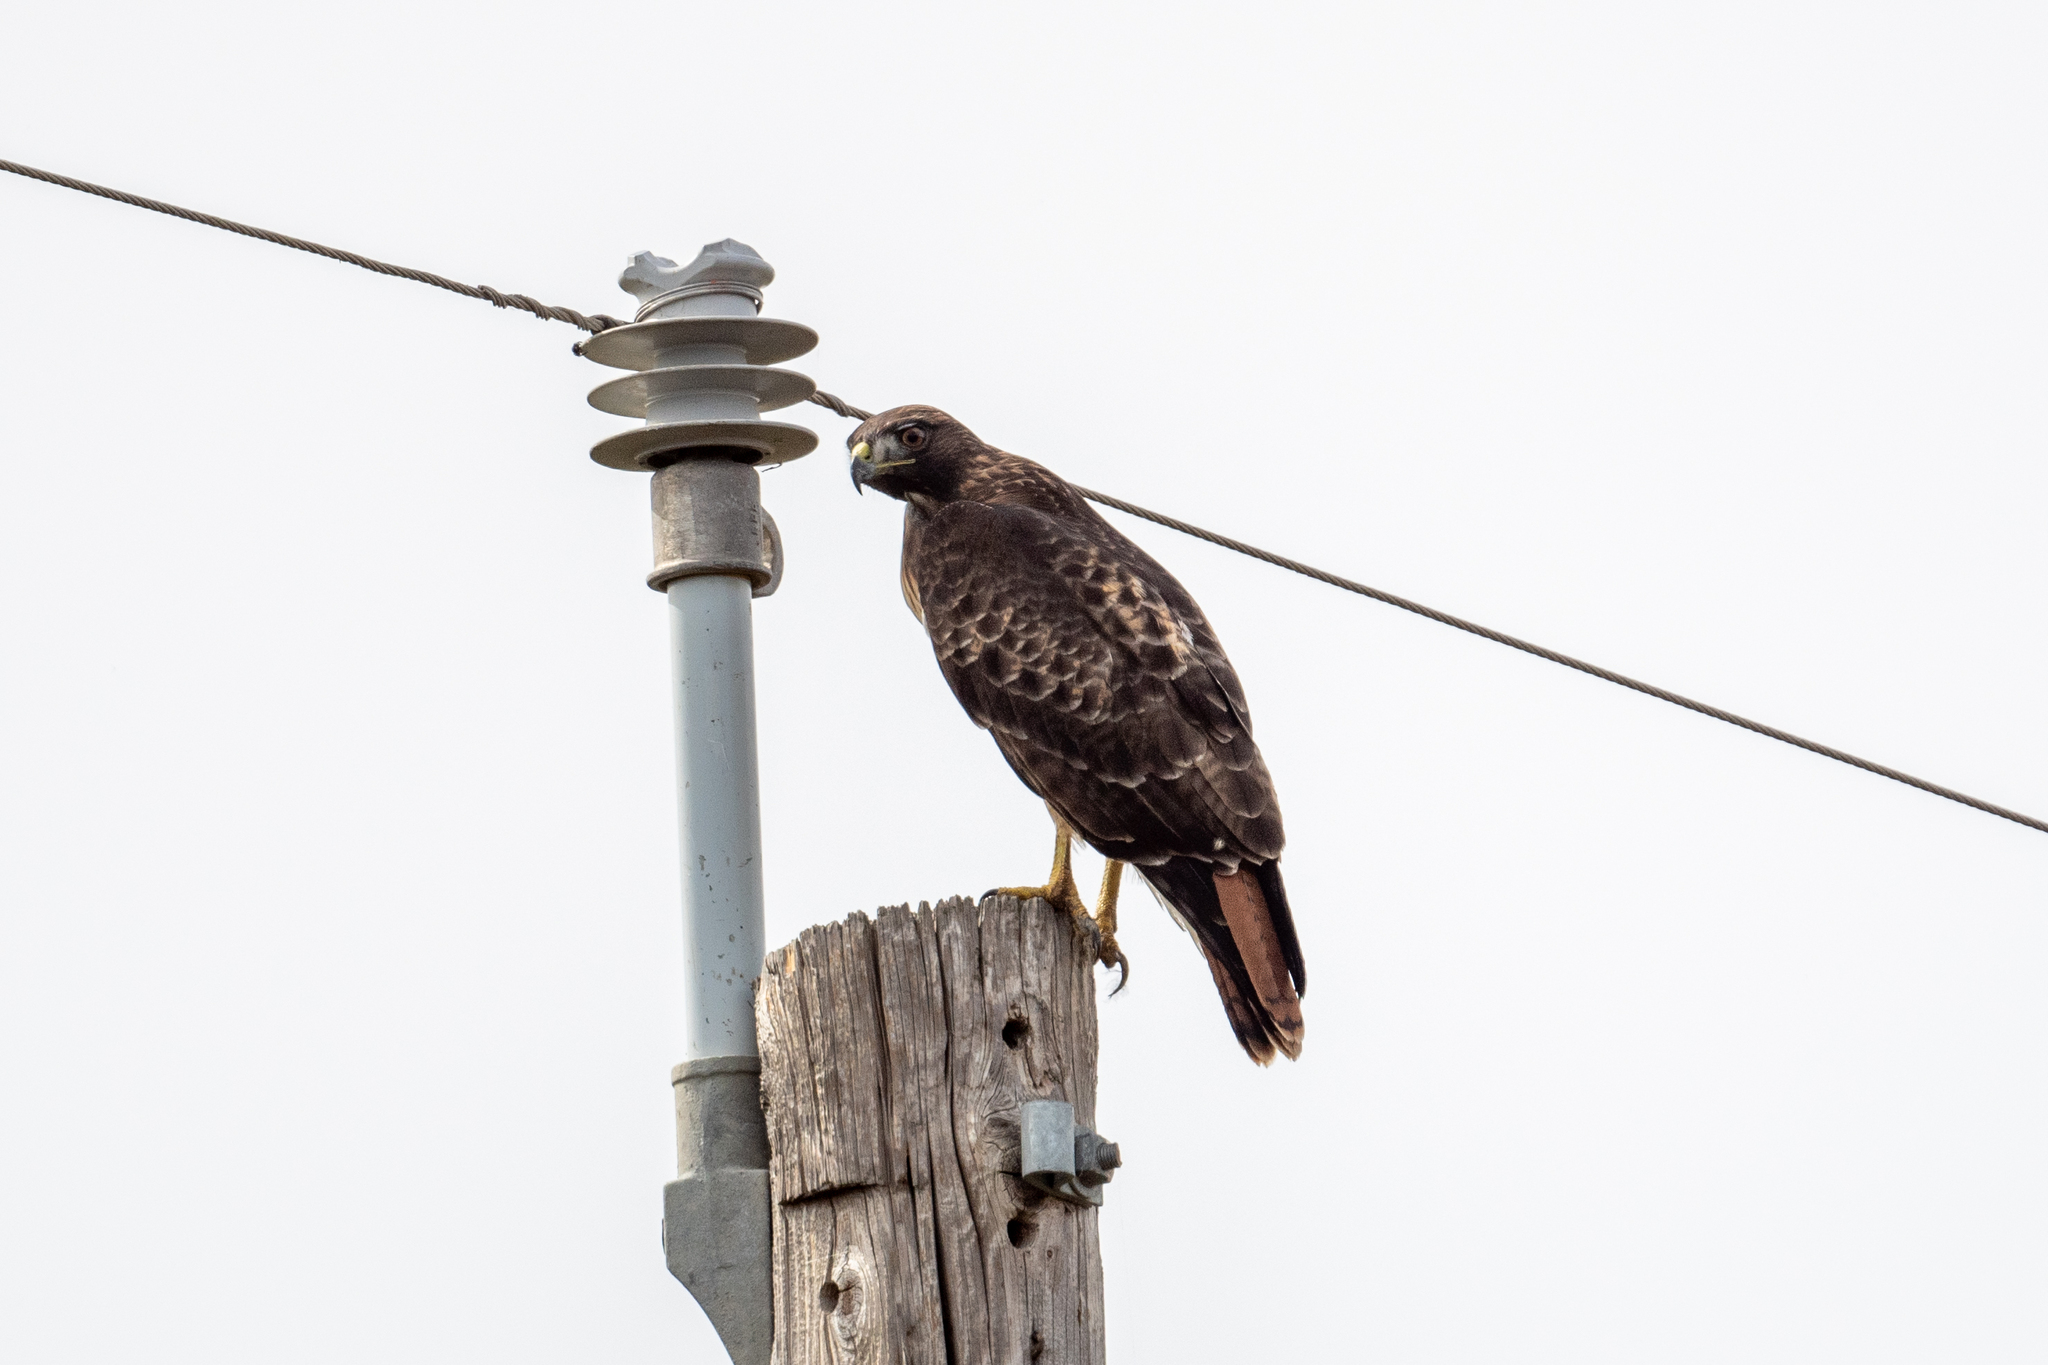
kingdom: Animalia
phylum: Chordata
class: Aves
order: Accipitriformes
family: Accipitridae
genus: Buteo
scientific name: Buteo jamaicensis
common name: Red-tailed hawk
